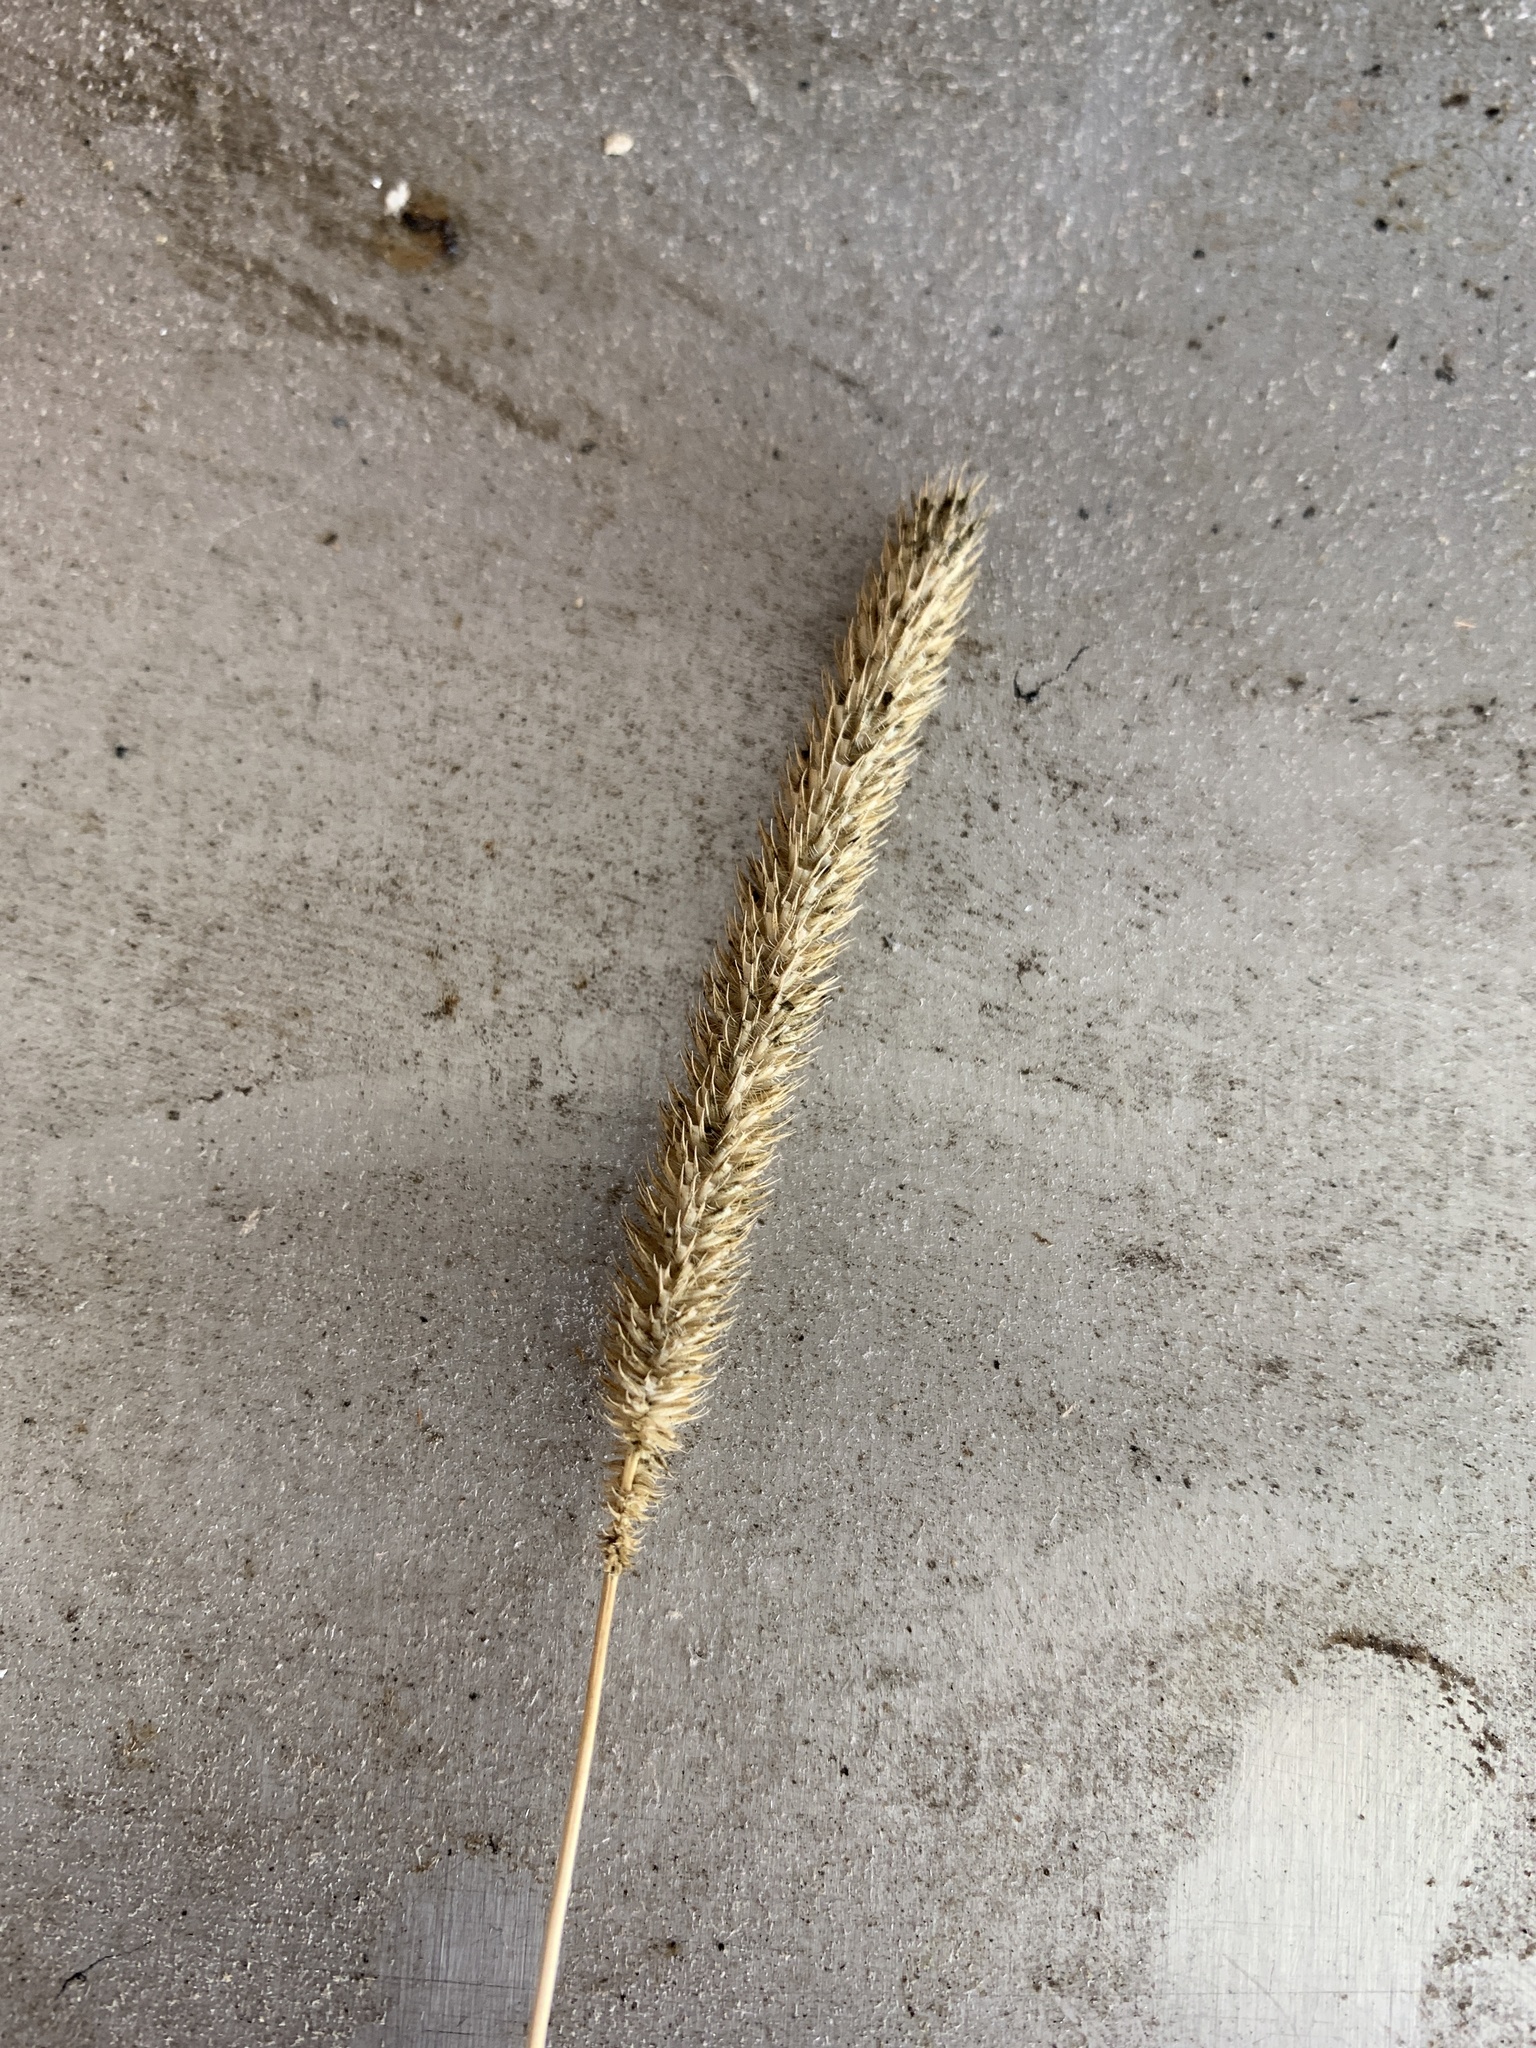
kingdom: Plantae
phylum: Tracheophyta
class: Liliopsida
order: Poales
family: Poaceae
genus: Phleum
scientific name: Phleum pratense
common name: Timothy grass
